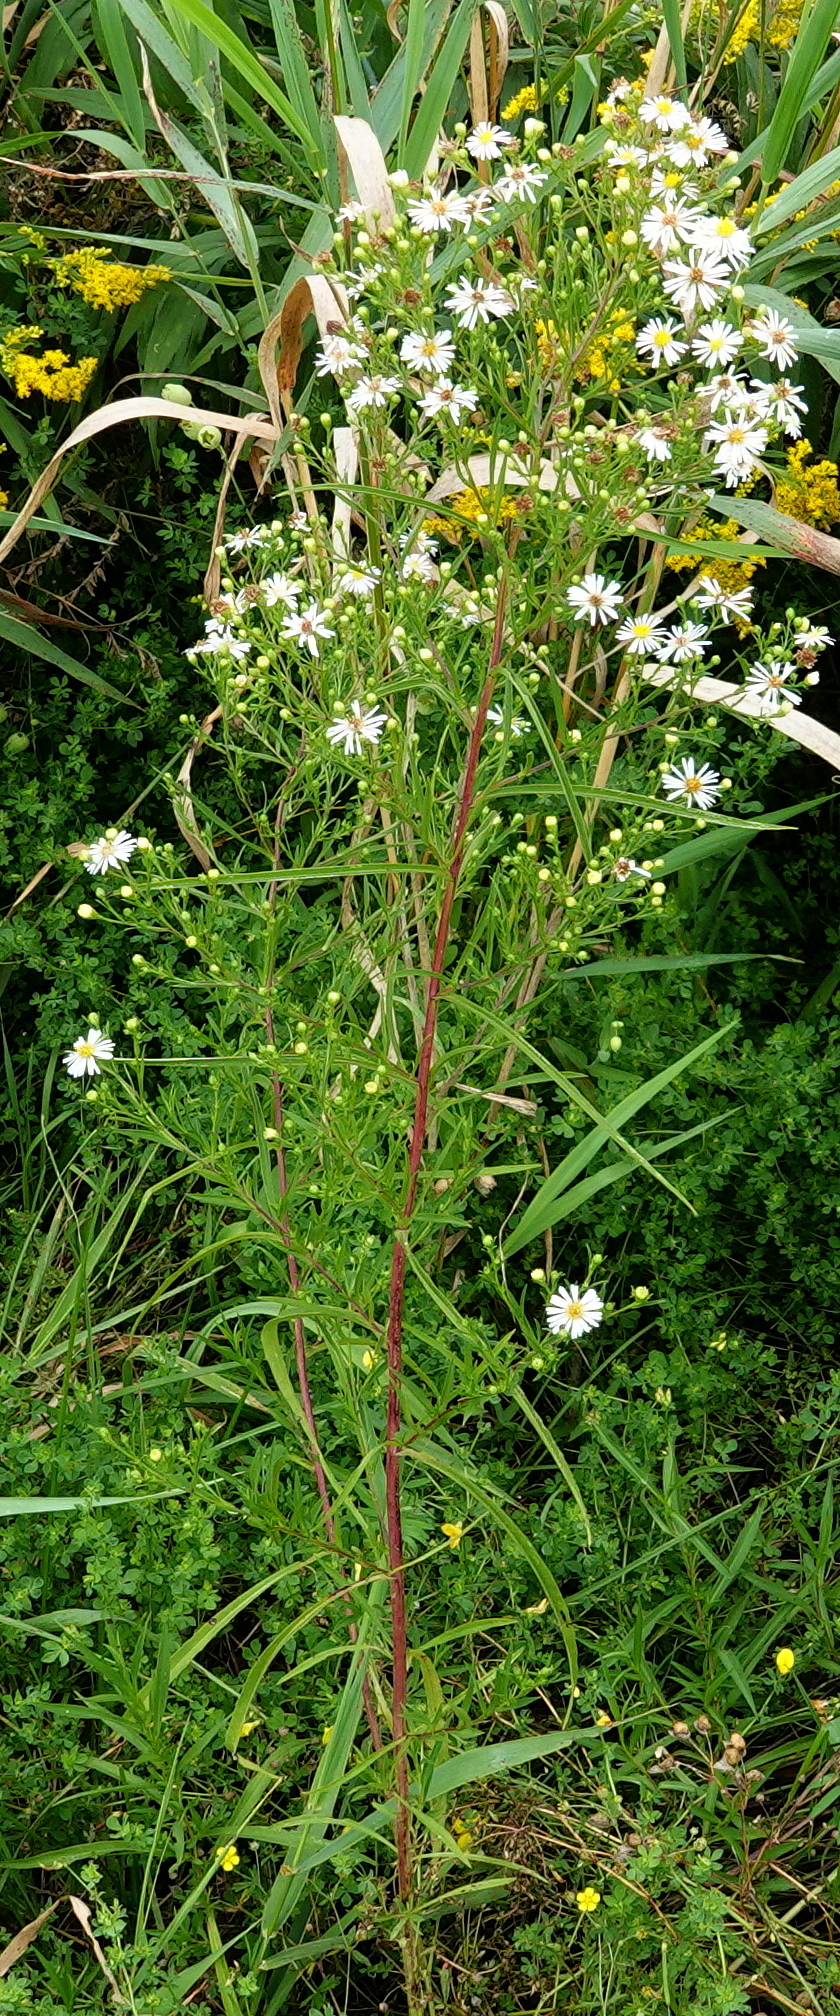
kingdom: Plantae
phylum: Tracheophyta
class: Magnoliopsida
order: Asterales
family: Asteraceae
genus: Symphyotrichum
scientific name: Symphyotrichum lanceolatum
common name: Panicled aster
